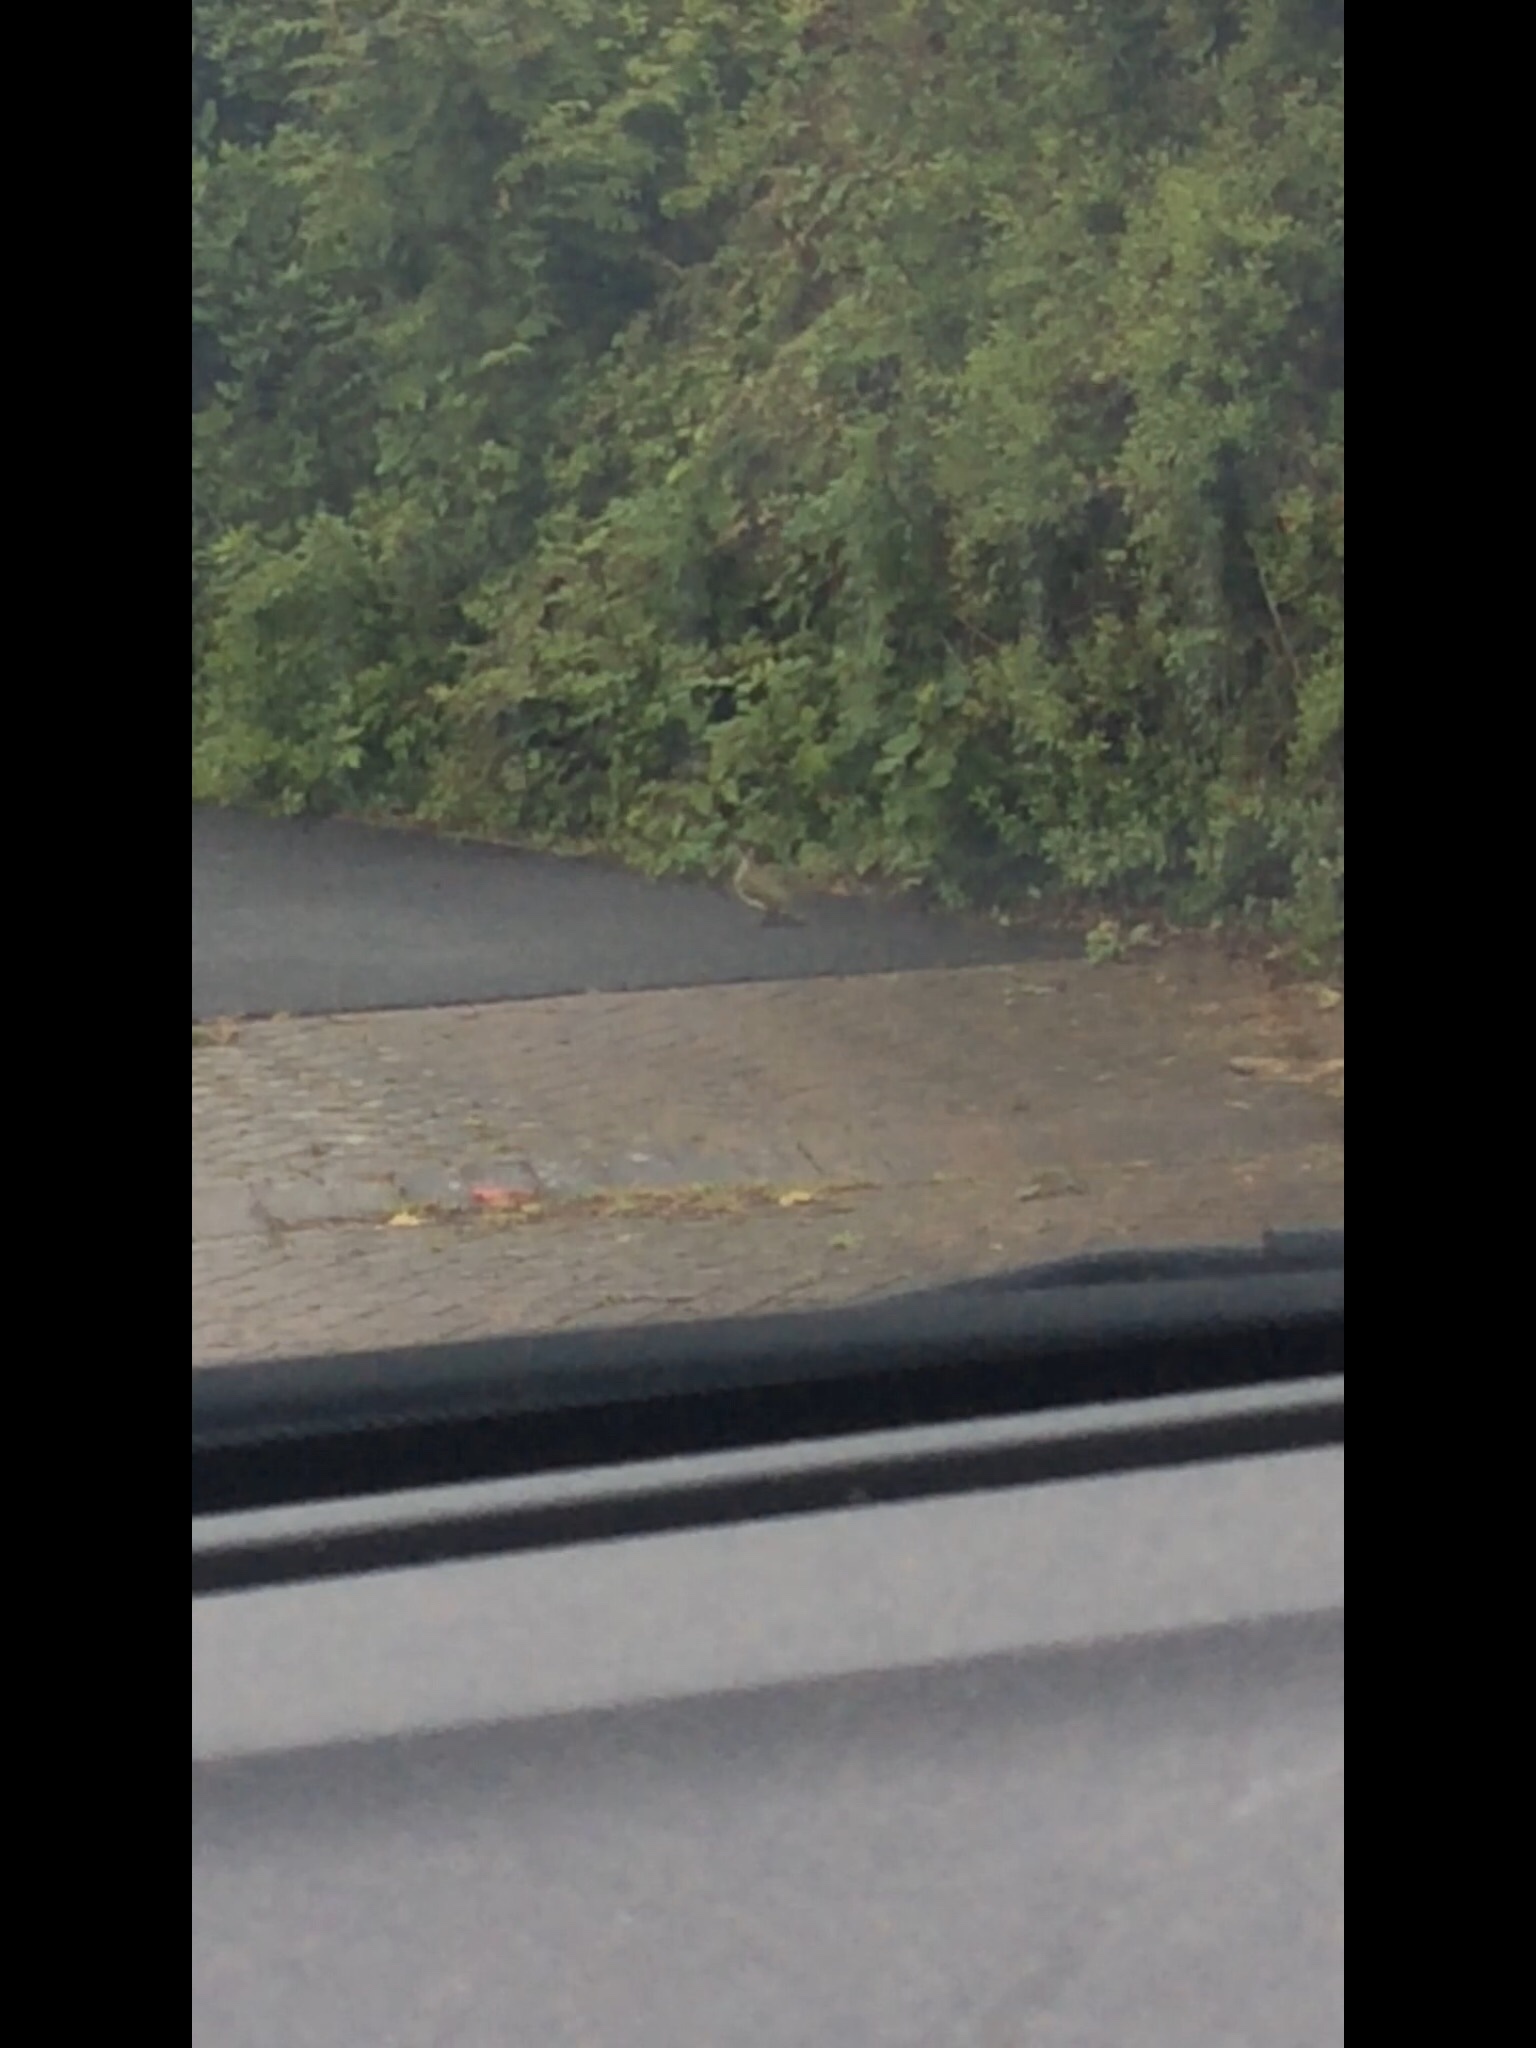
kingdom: Animalia
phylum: Chordata
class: Aves
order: Piciformes
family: Picidae
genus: Picus
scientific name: Picus viridis
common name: European green woodpecker
